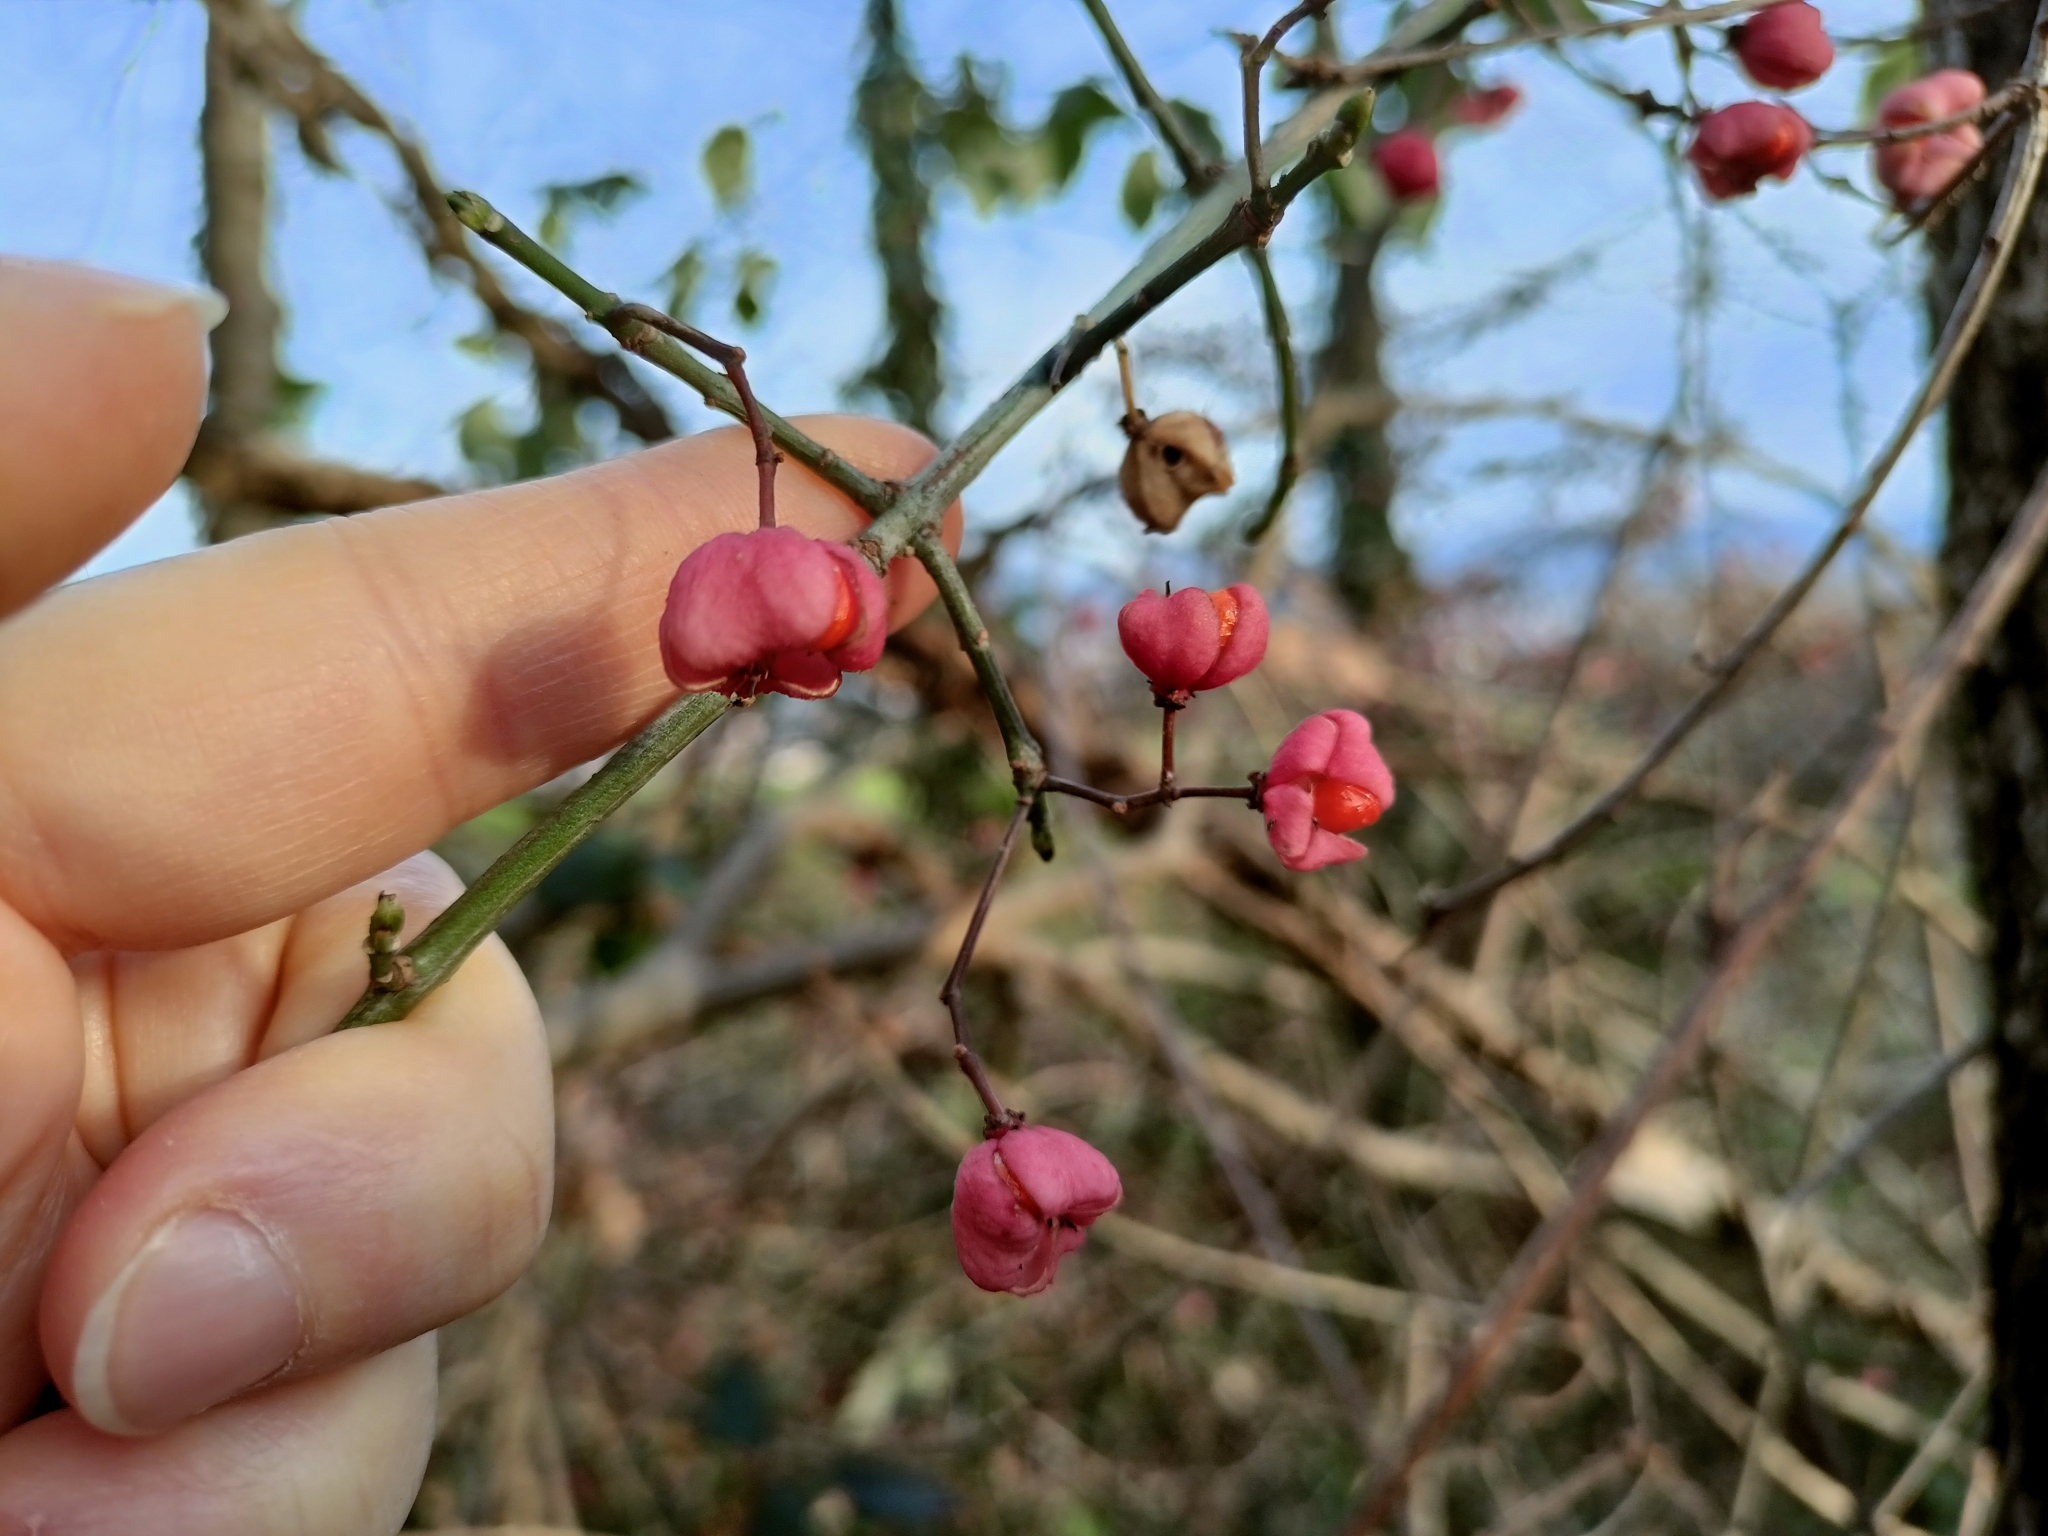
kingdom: Plantae
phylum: Tracheophyta
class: Magnoliopsida
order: Celastrales
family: Celastraceae
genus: Euonymus
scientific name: Euonymus europaeus
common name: Spindle
